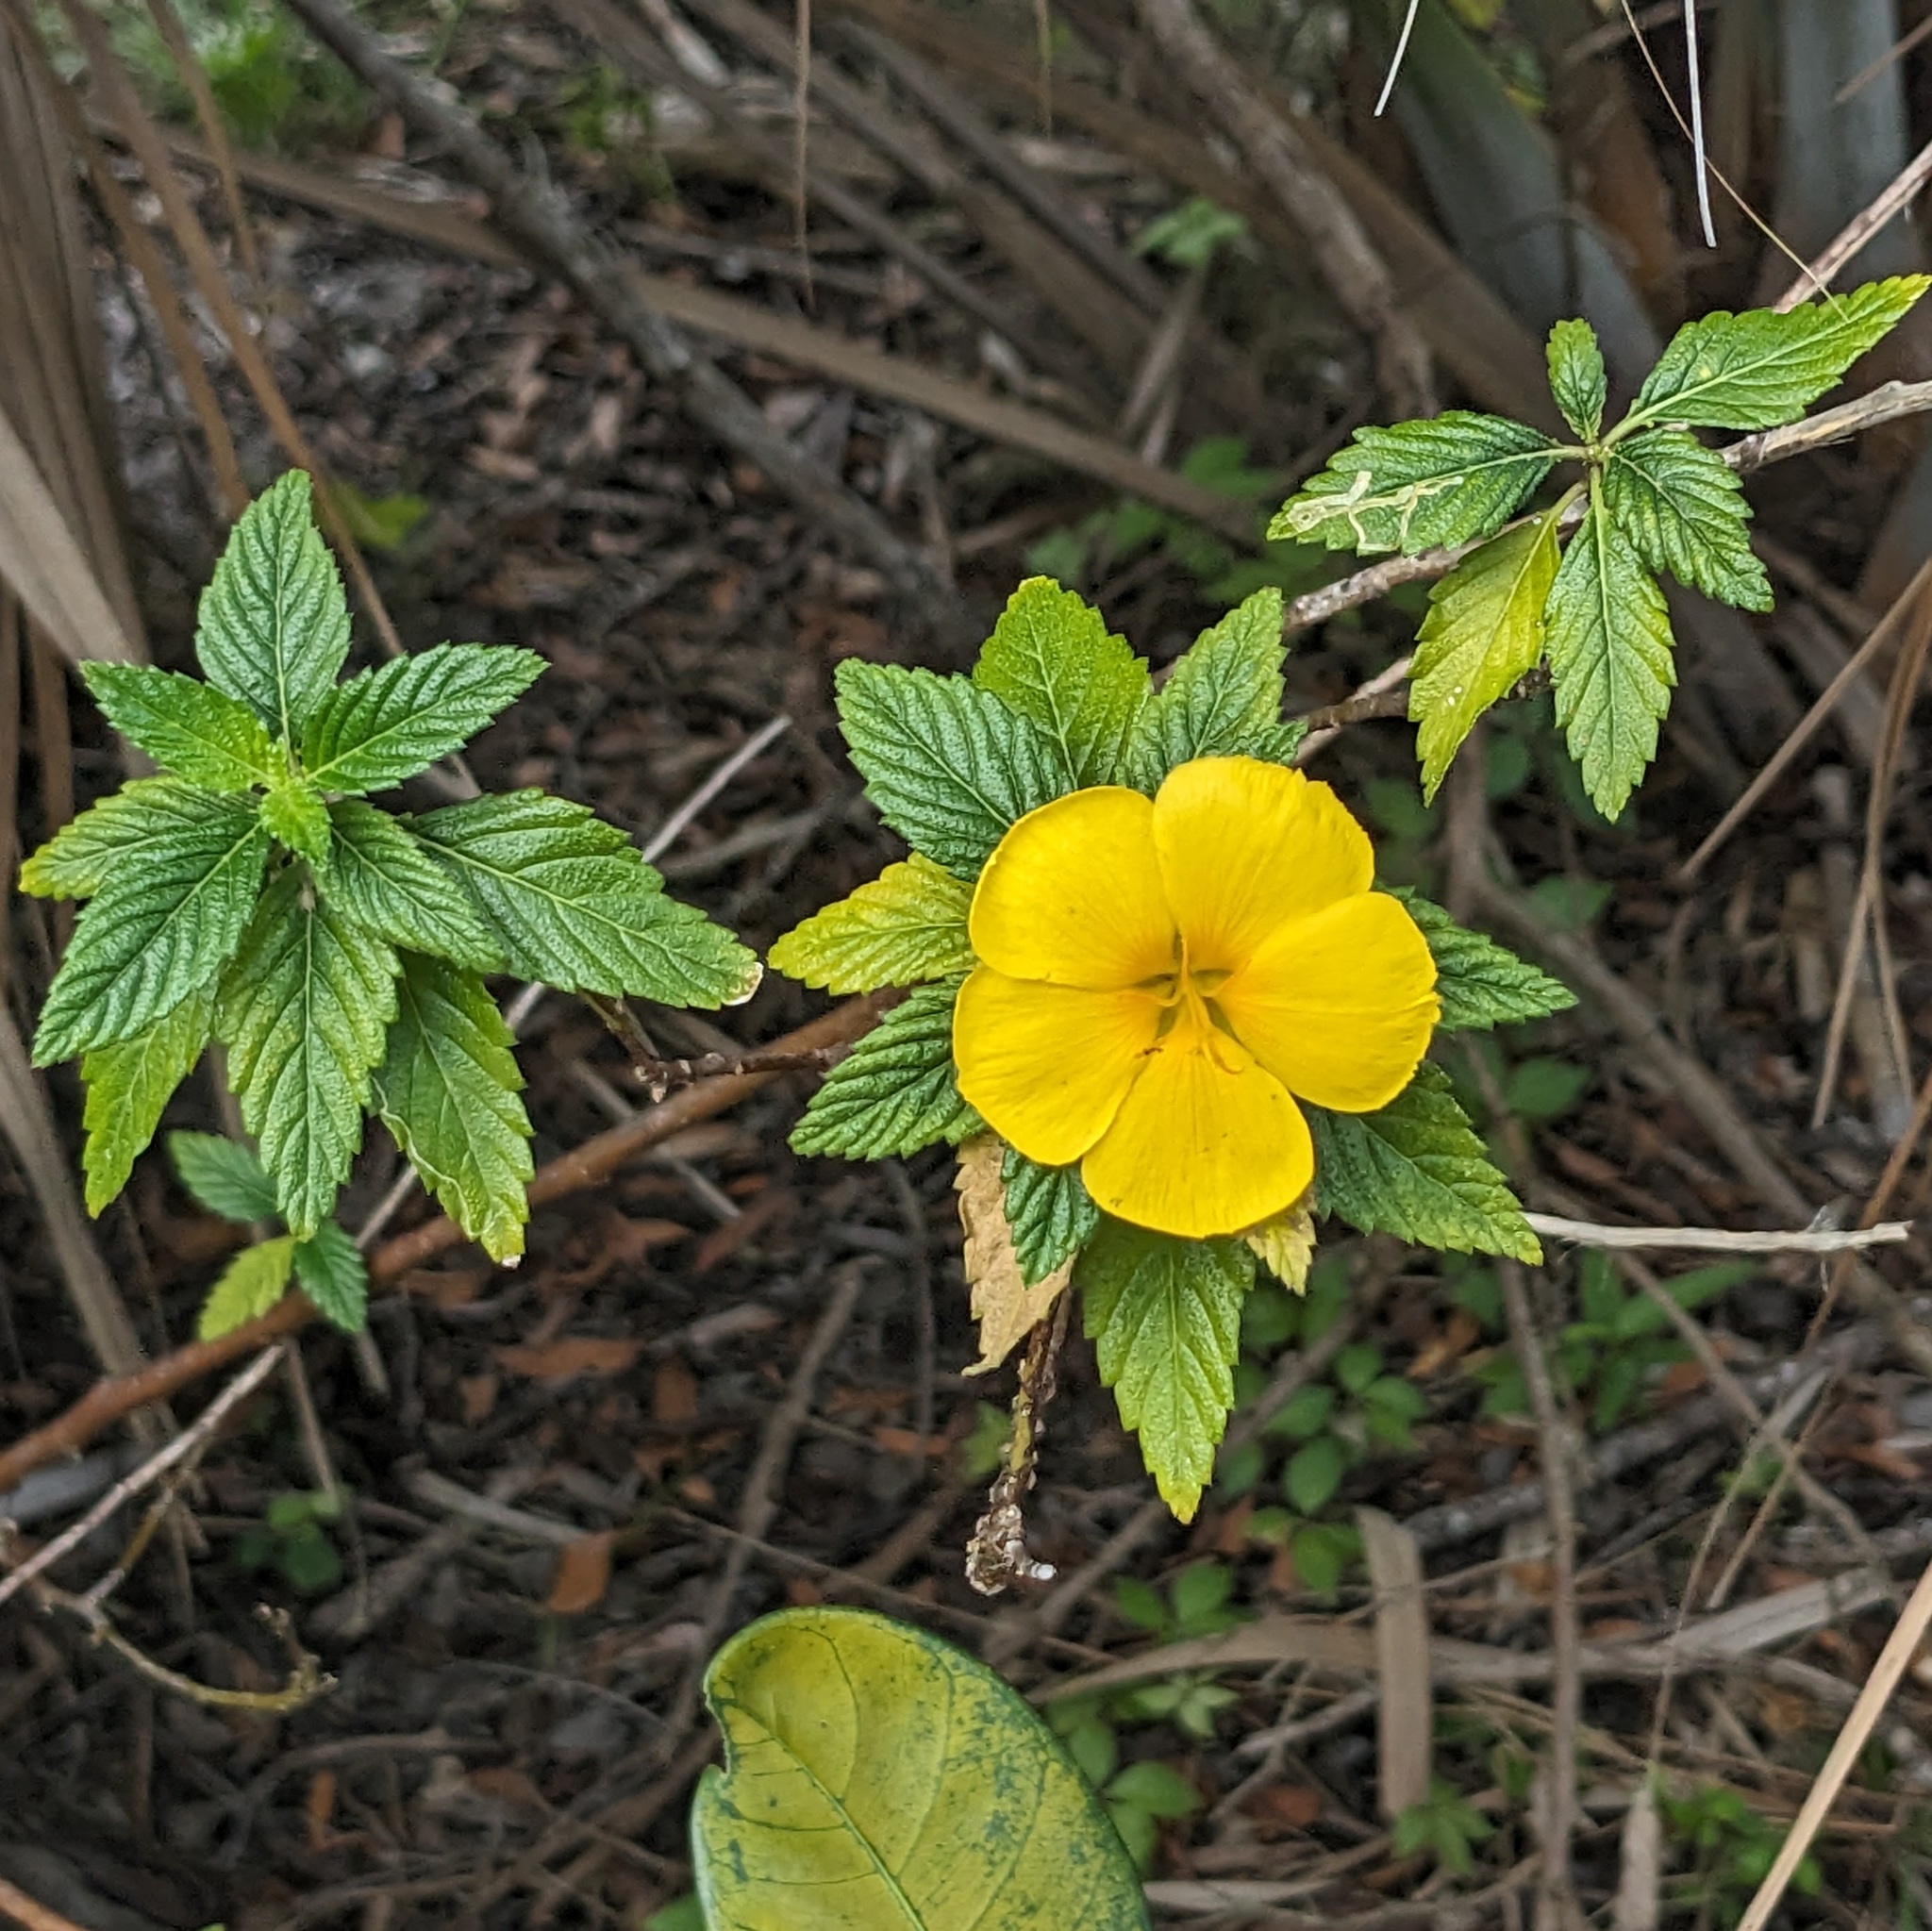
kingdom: Plantae
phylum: Tracheophyta
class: Magnoliopsida
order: Malpighiales
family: Turneraceae
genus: Turnera
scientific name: Turnera ulmifolia
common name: Ramgoat dashalong
